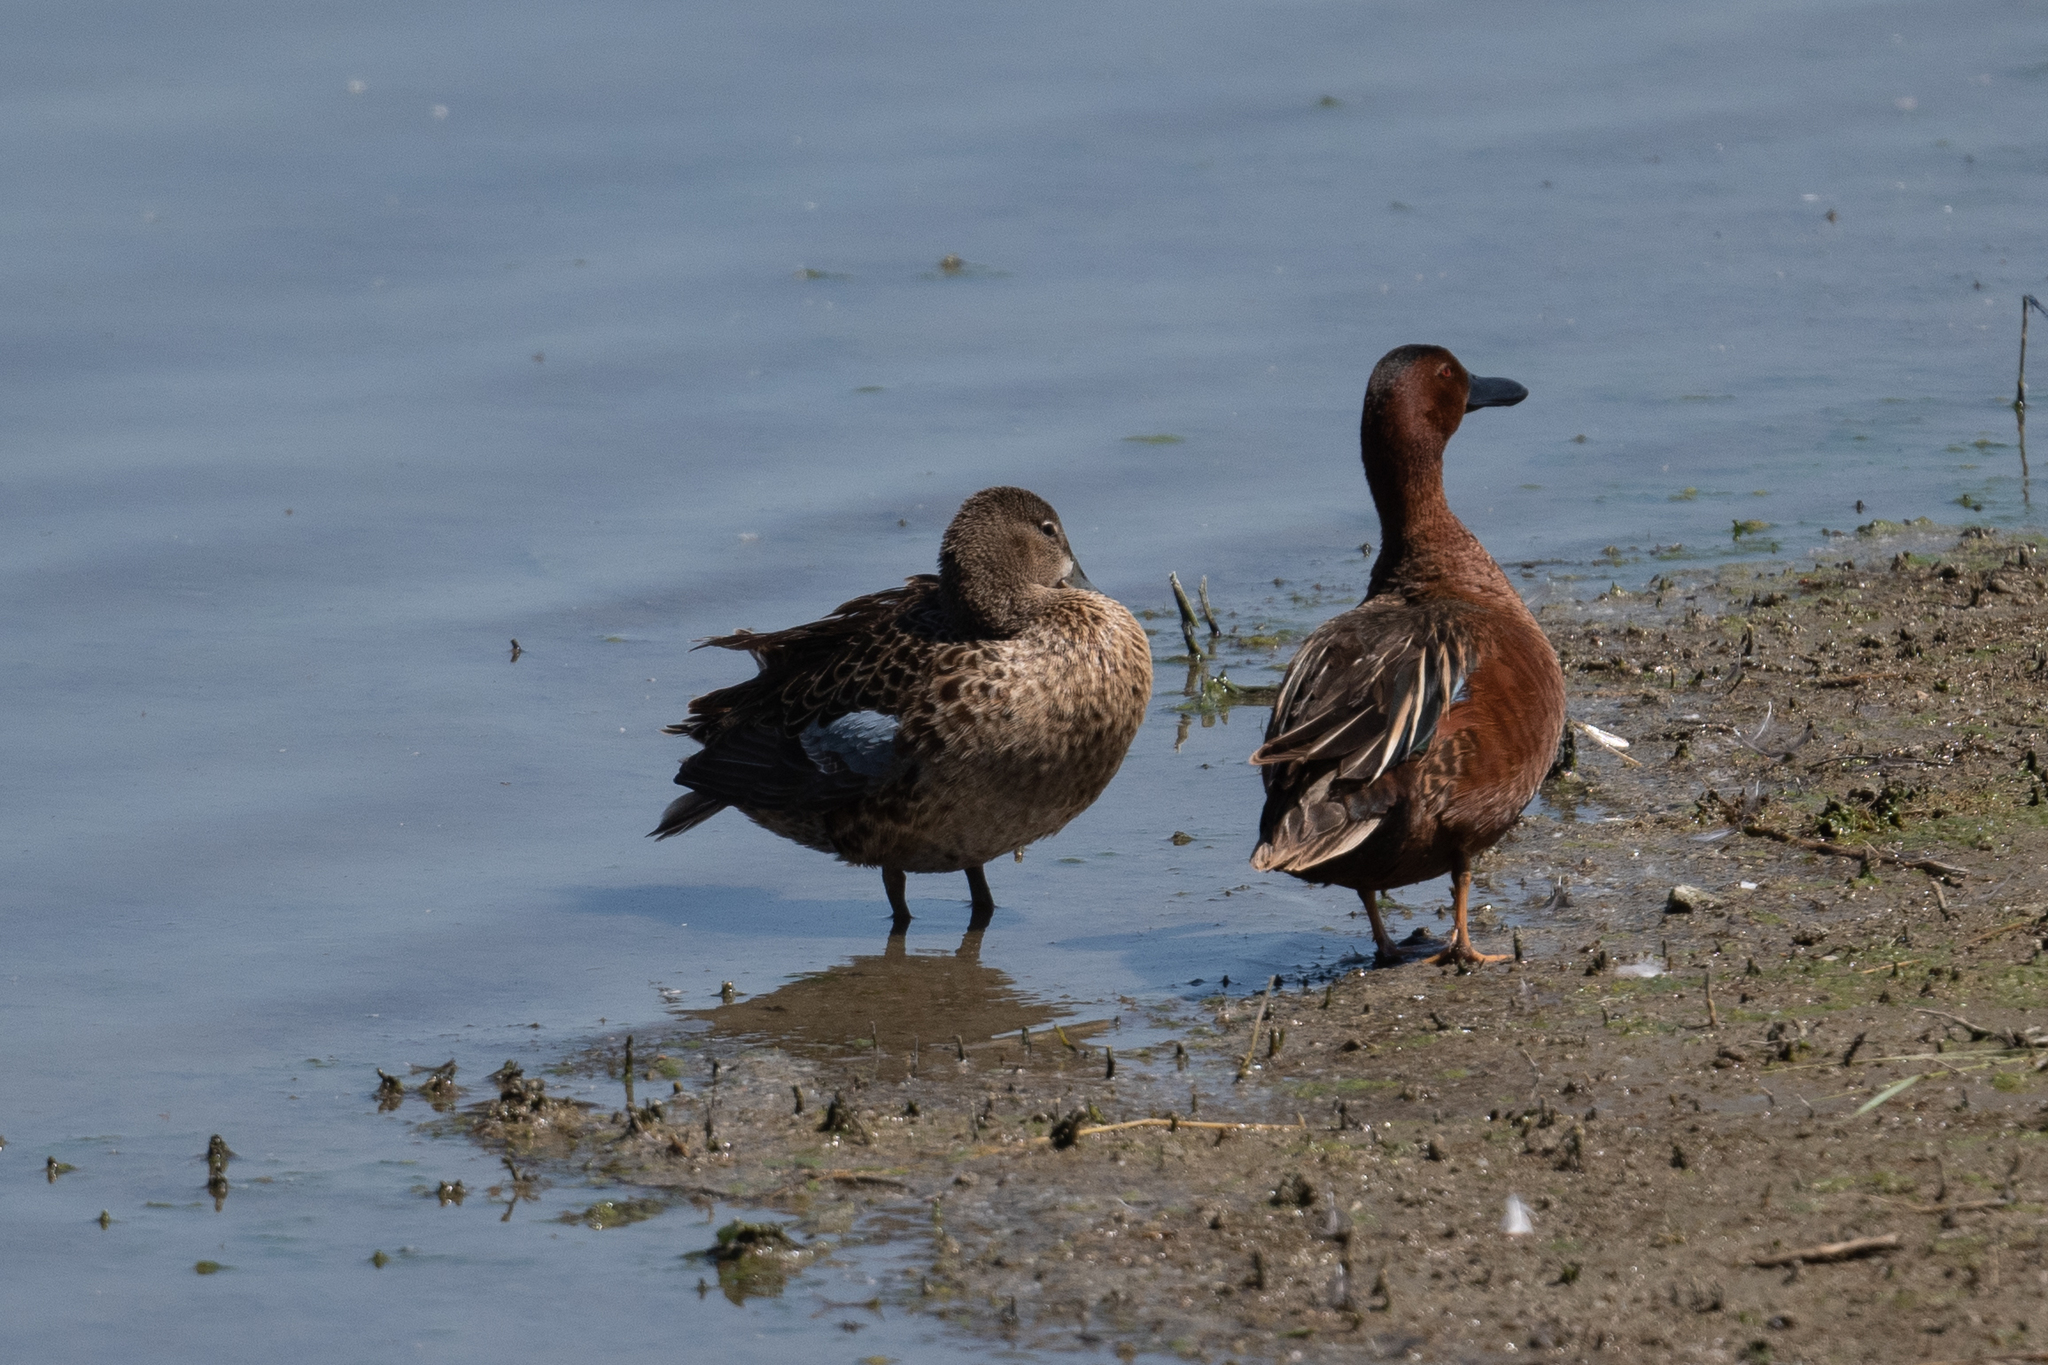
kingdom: Animalia
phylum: Chordata
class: Aves
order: Anseriformes
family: Anatidae
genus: Spatula
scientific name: Spatula cyanoptera
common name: Cinnamon teal
